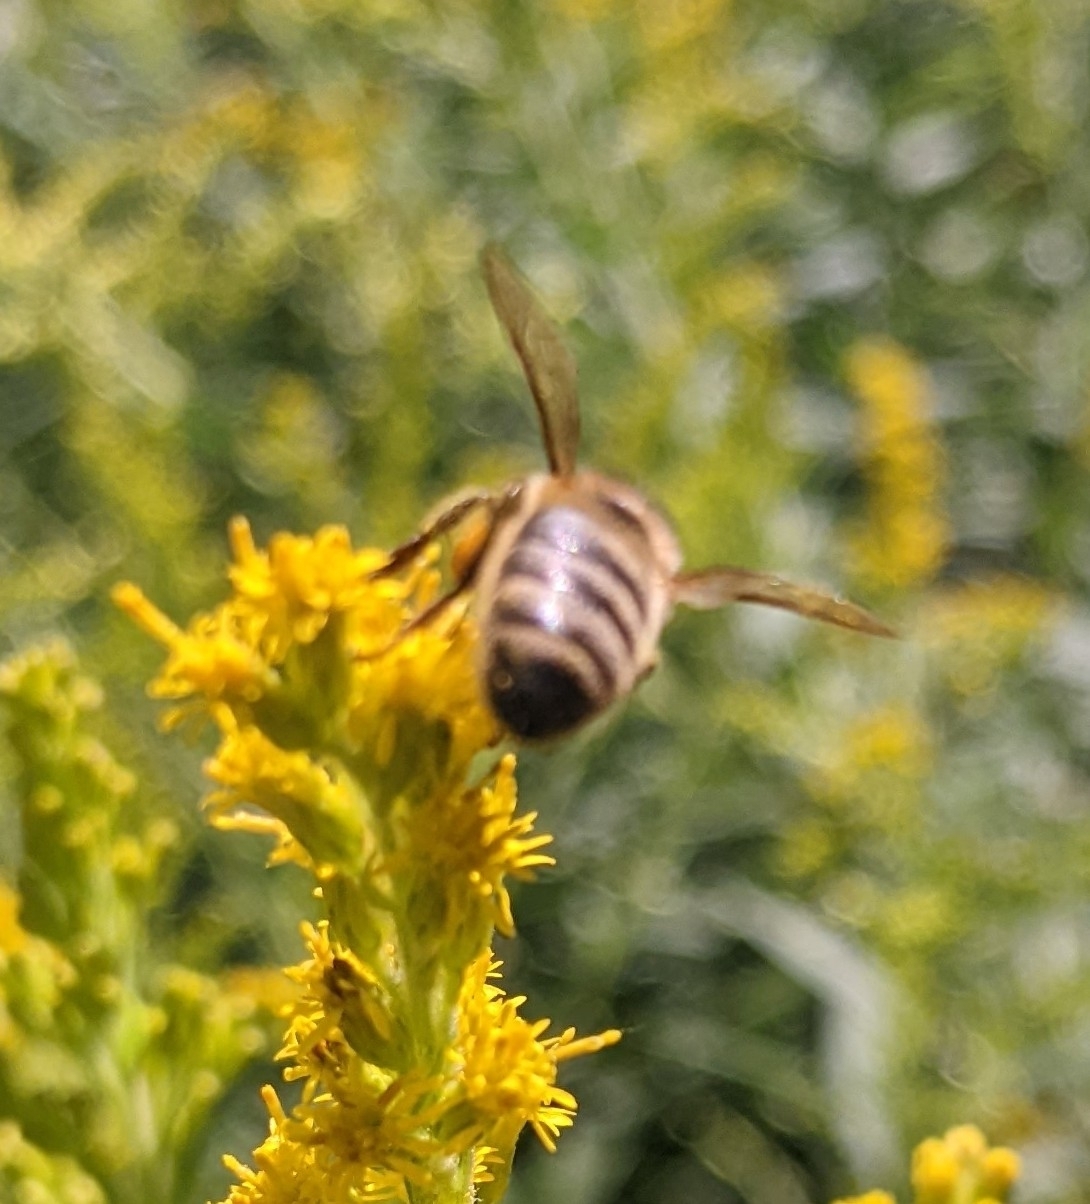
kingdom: Animalia
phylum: Arthropoda
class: Insecta
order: Hymenoptera
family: Apidae
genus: Apis
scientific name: Apis mellifera
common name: Honey bee
